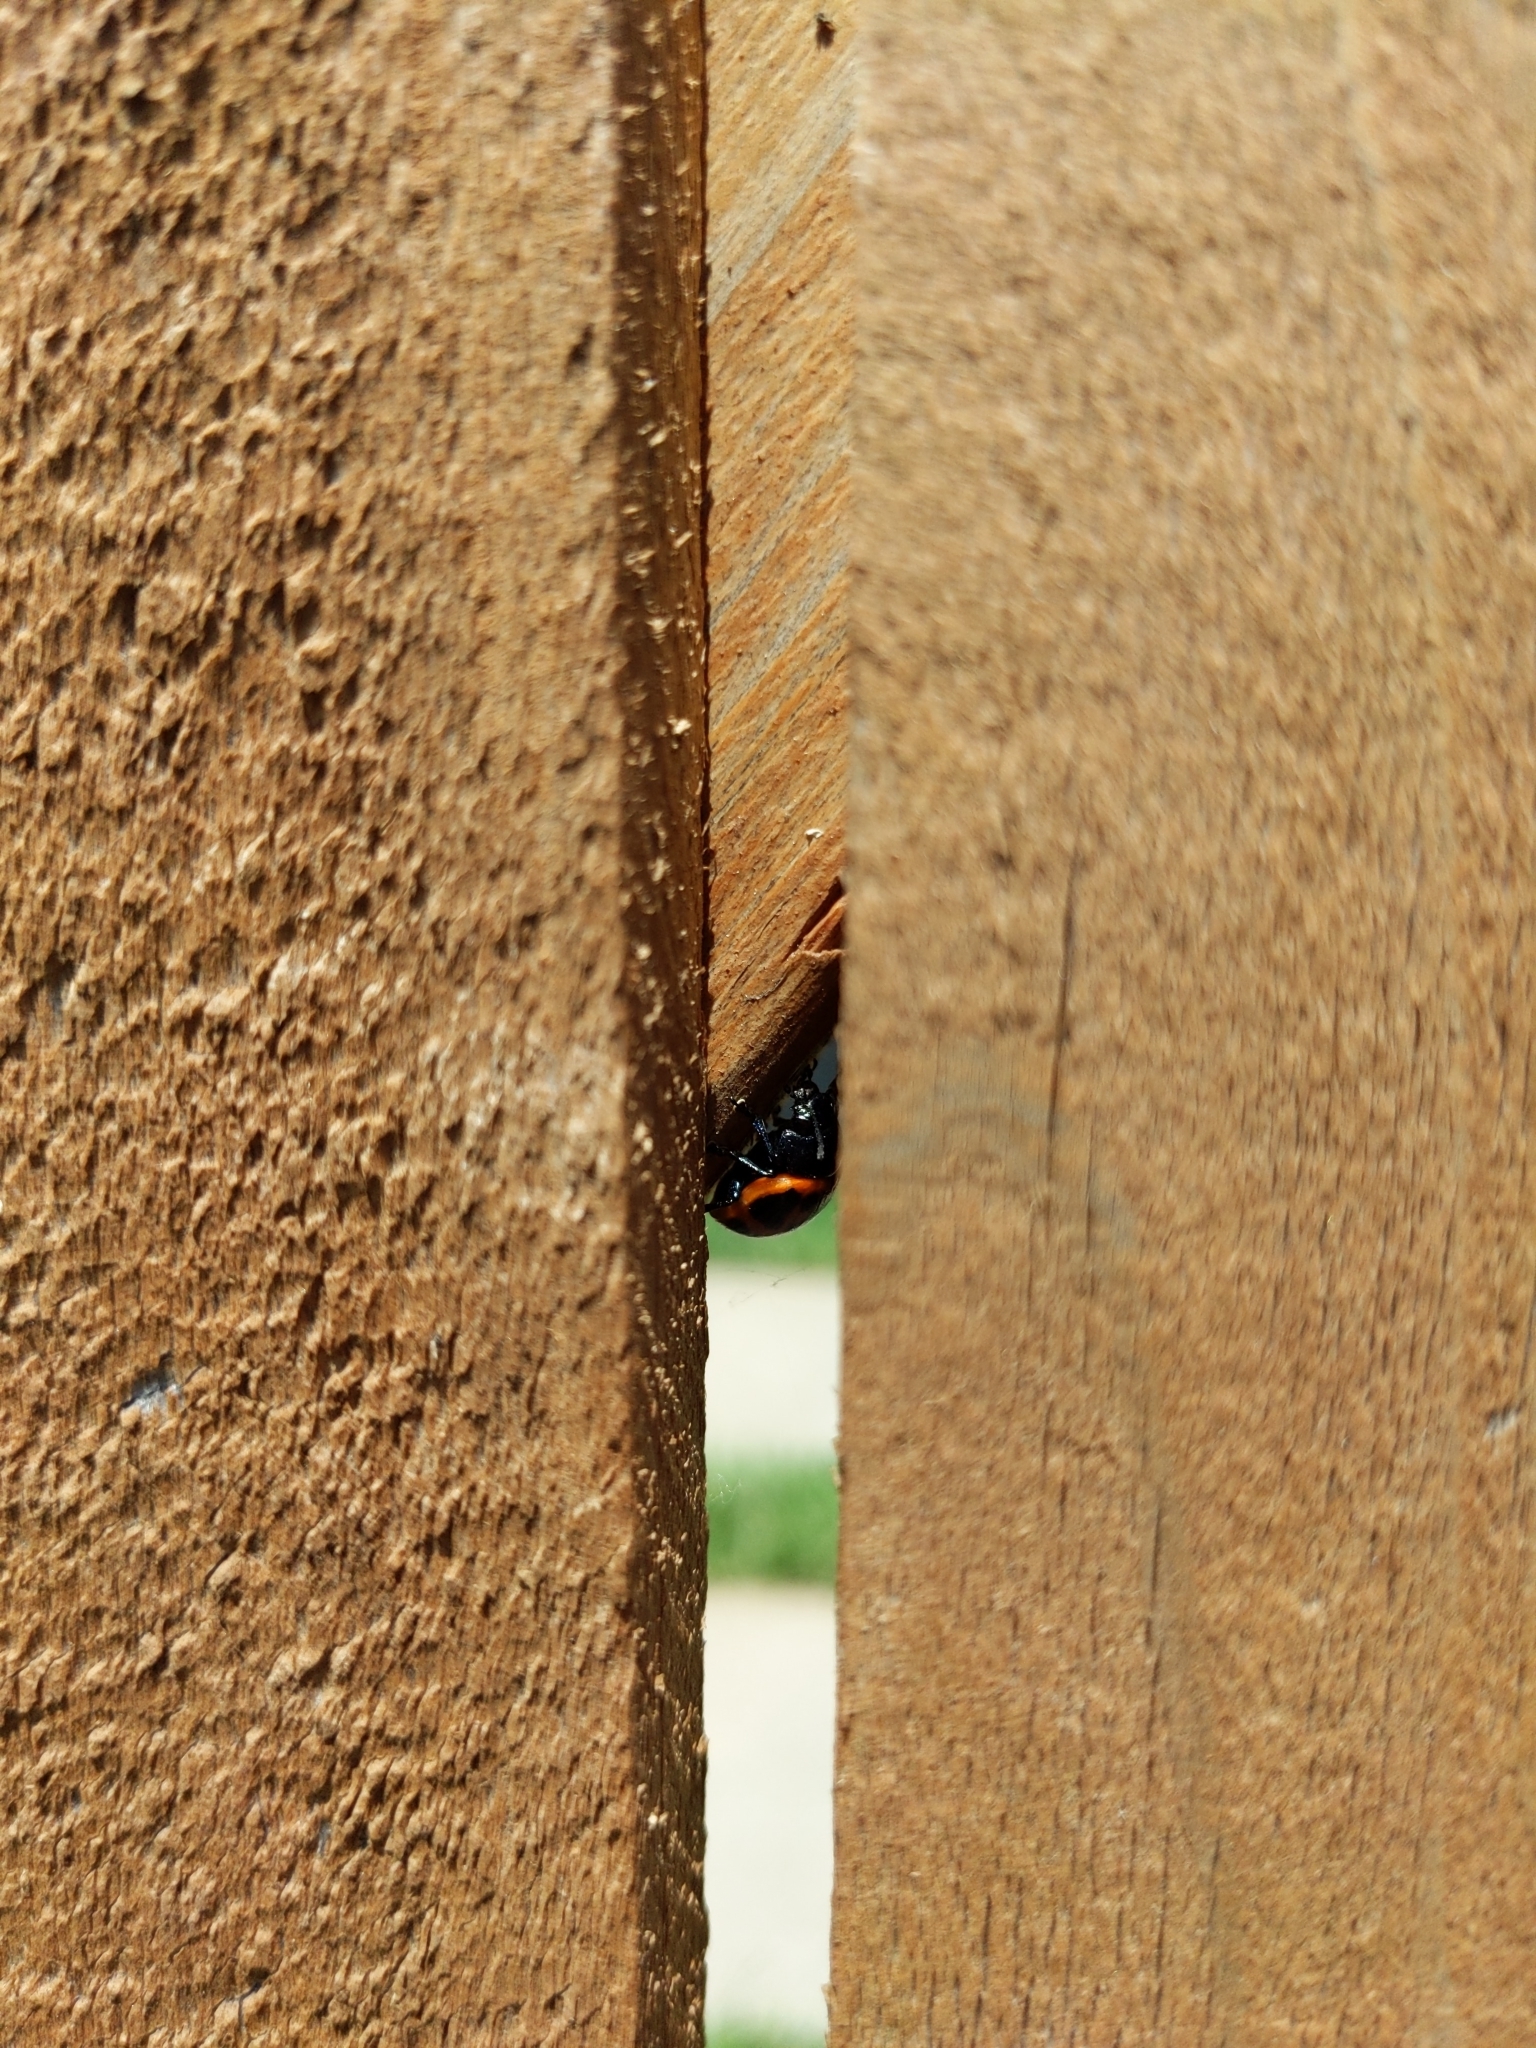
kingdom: Animalia
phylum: Arthropoda
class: Insecta
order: Coleoptera
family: Chrysomelidae
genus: Labidomera
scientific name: Labidomera clivicollis
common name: Swamp milkweed leaf beetle
